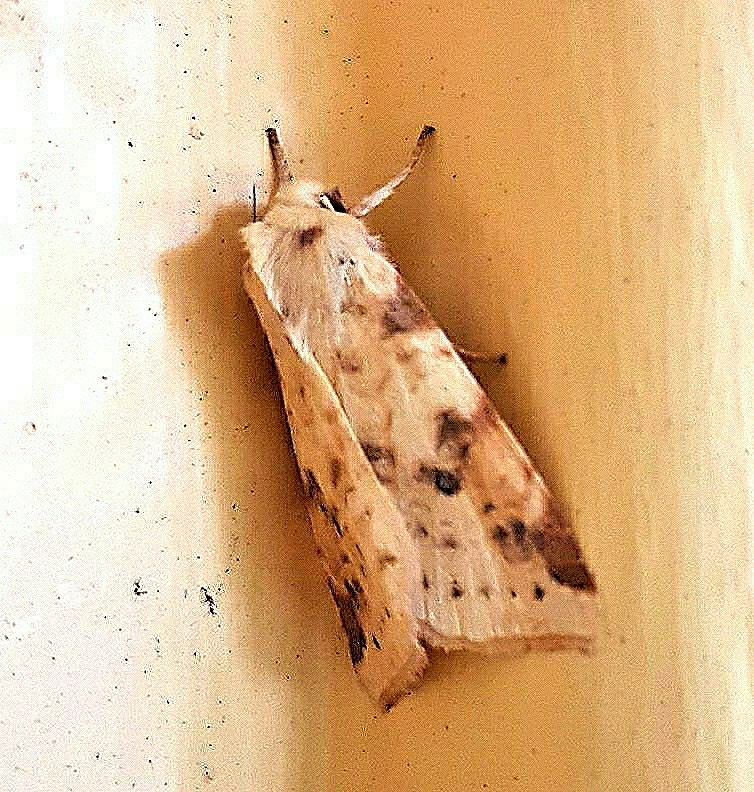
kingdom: Animalia
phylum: Arthropoda
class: Insecta
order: Lepidoptera
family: Noctuidae
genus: Xanthia
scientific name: Xanthia icteritia
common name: The sallow
